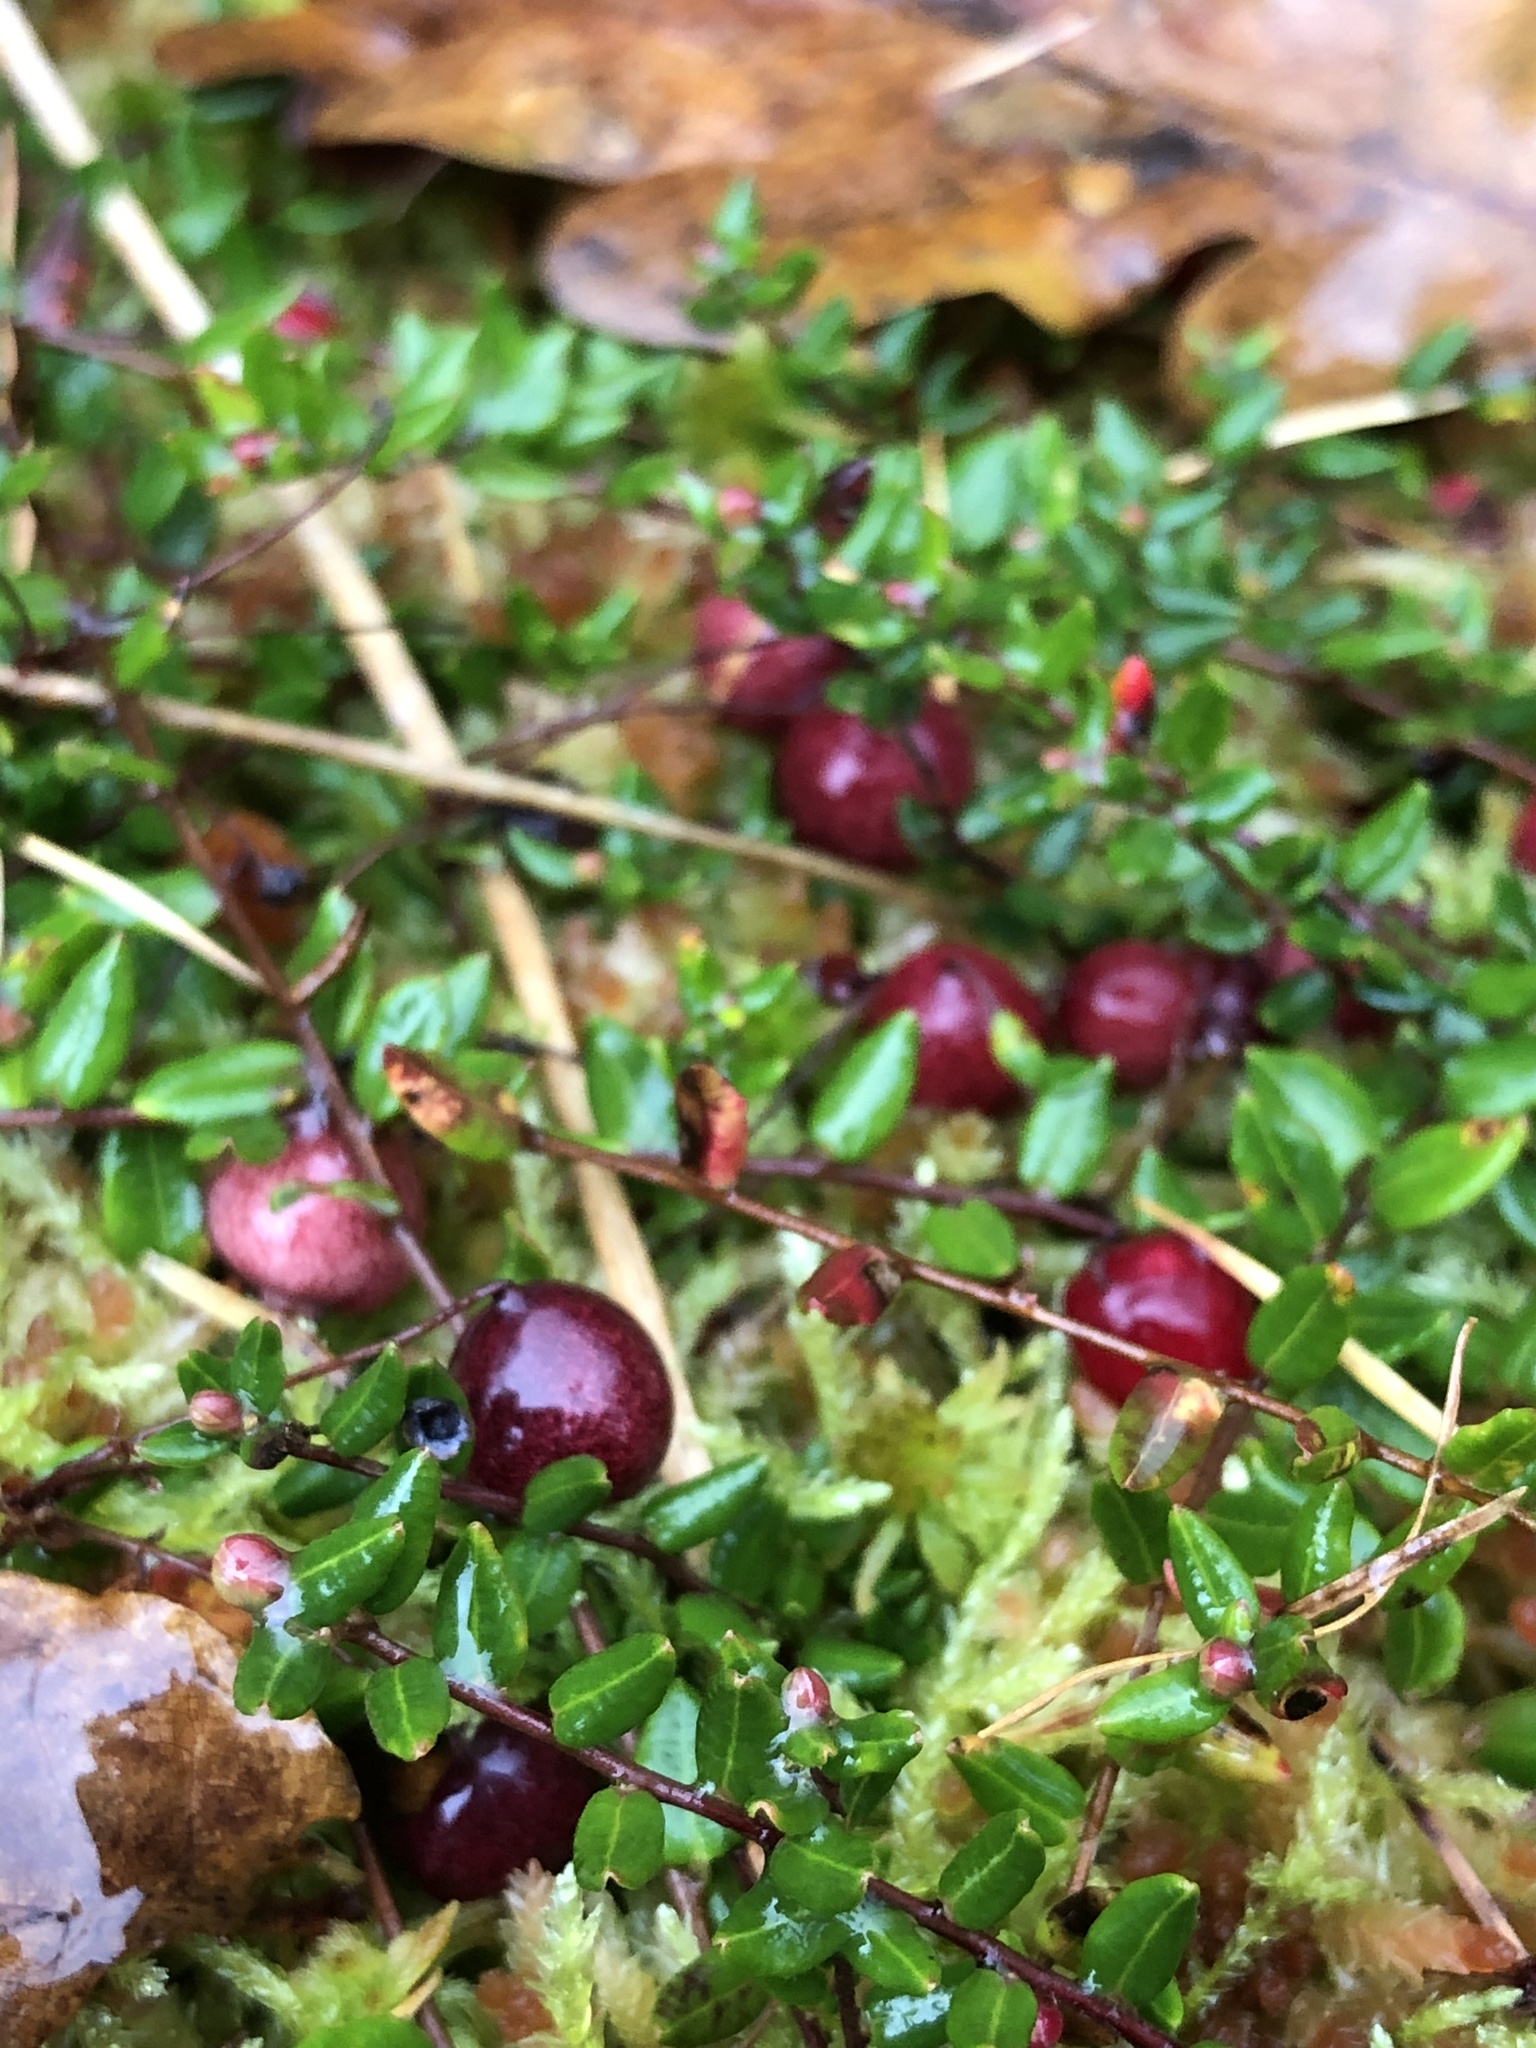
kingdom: Plantae
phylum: Tracheophyta
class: Magnoliopsida
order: Ericales
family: Ericaceae
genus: Vaccinium
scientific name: Vaccinium oxycoccos
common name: Cranberry
